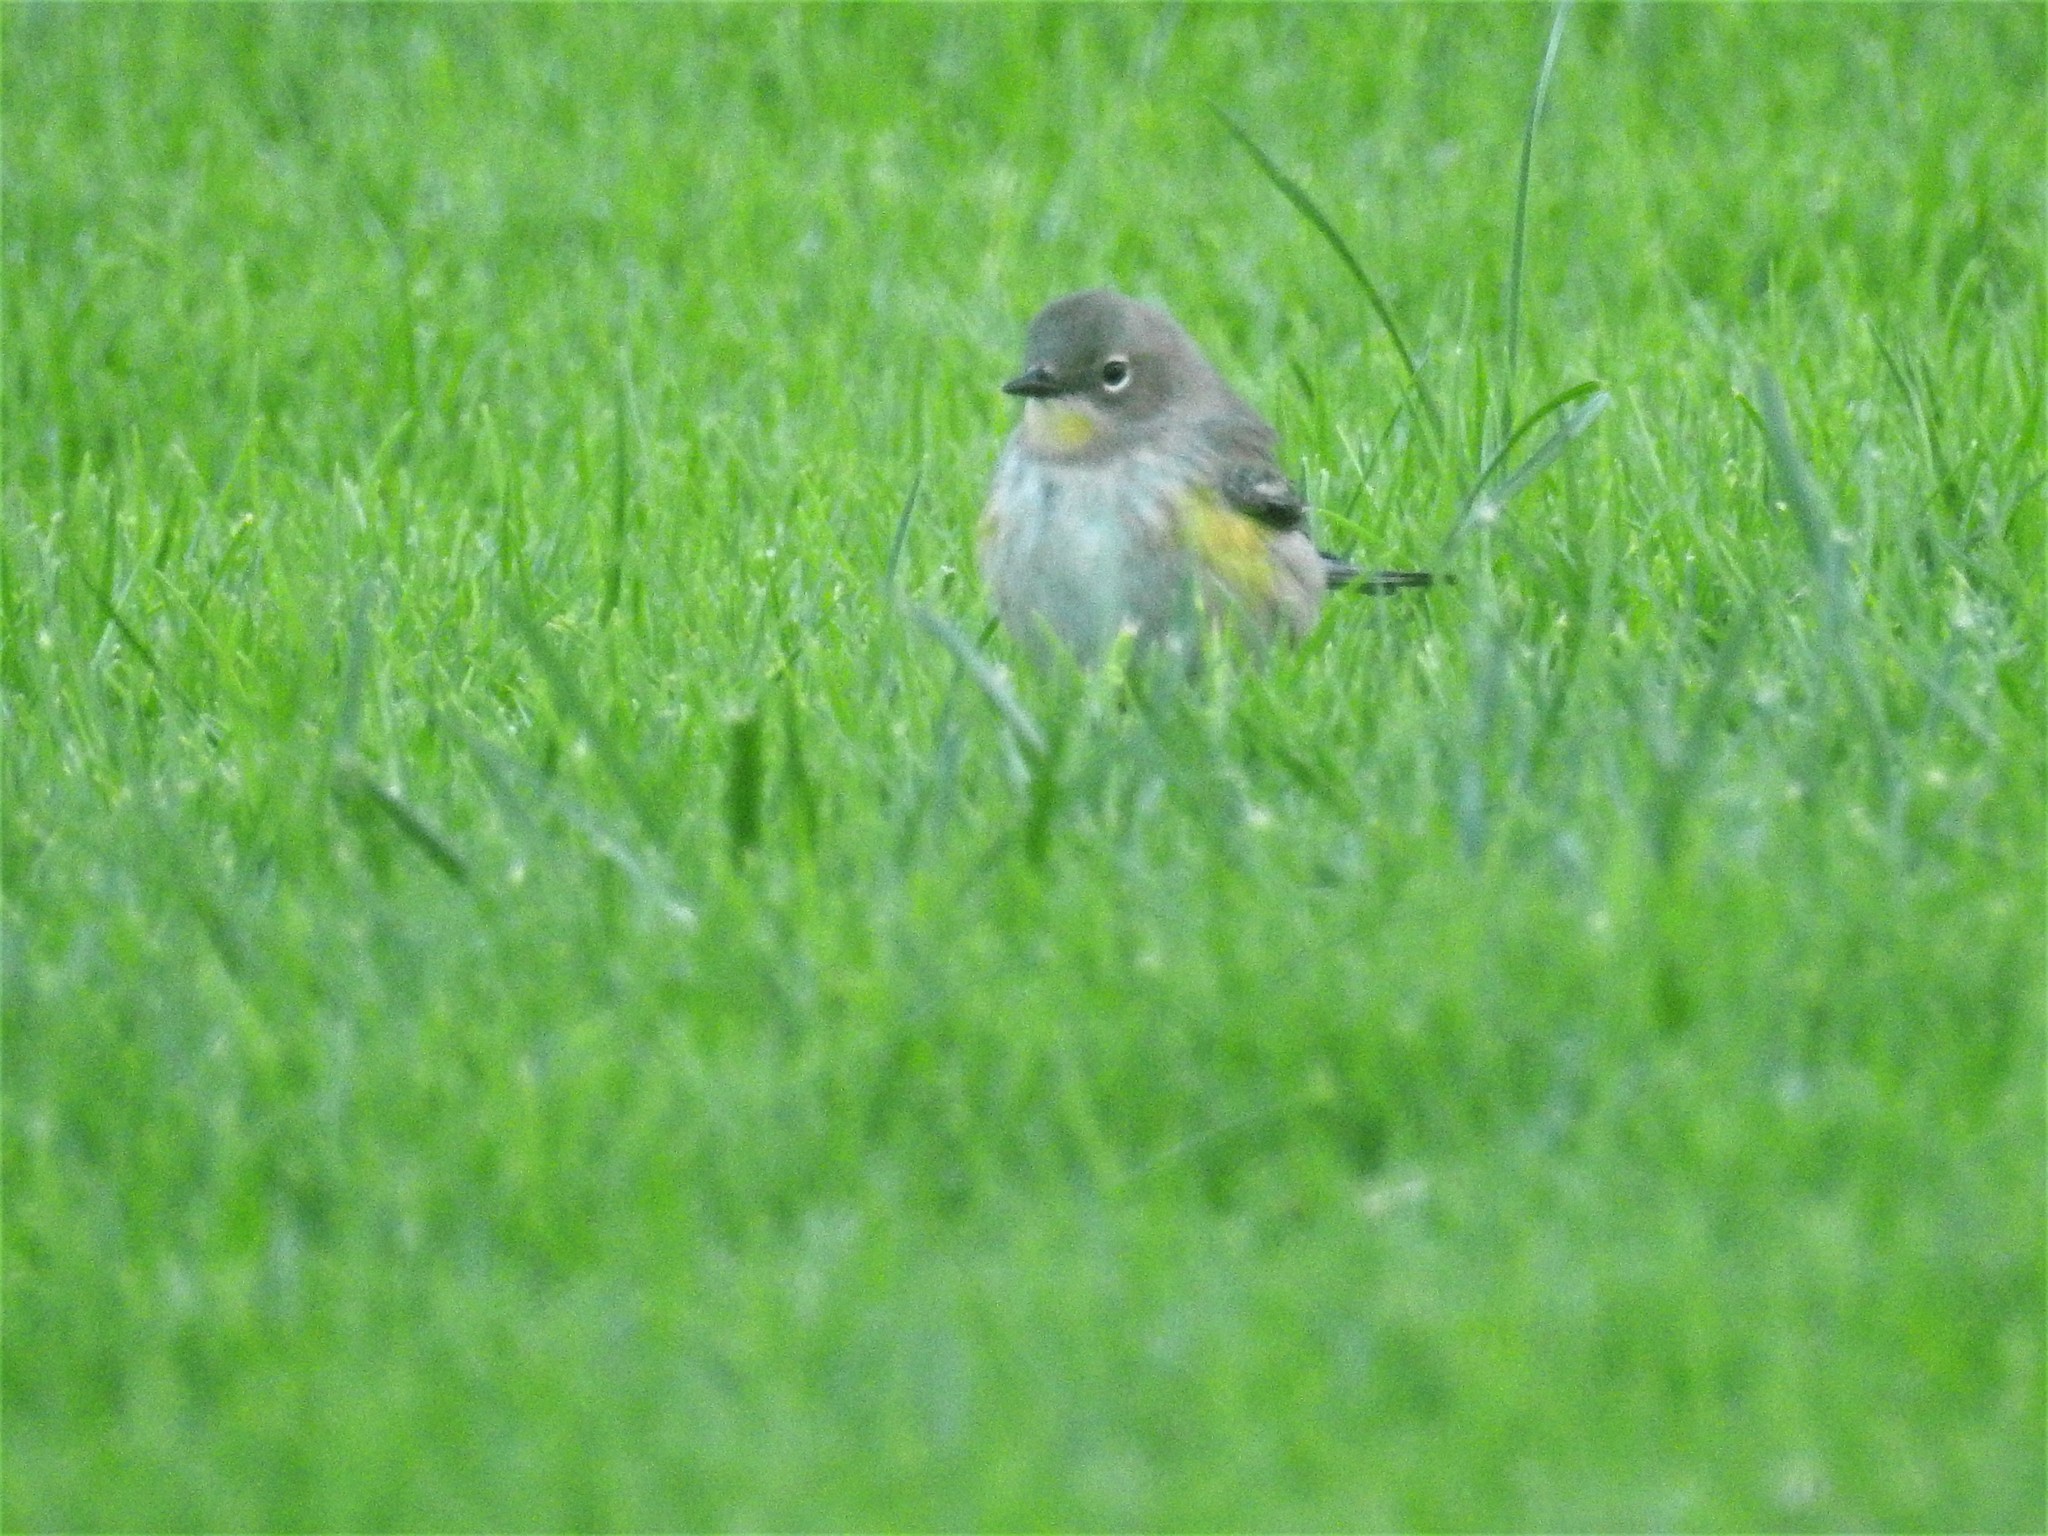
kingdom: Animalia
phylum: Chordata
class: Aves
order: Passeriformes
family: Parulidae
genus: Setophaga
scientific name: Setophaga coronata
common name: Myrtle warbler
